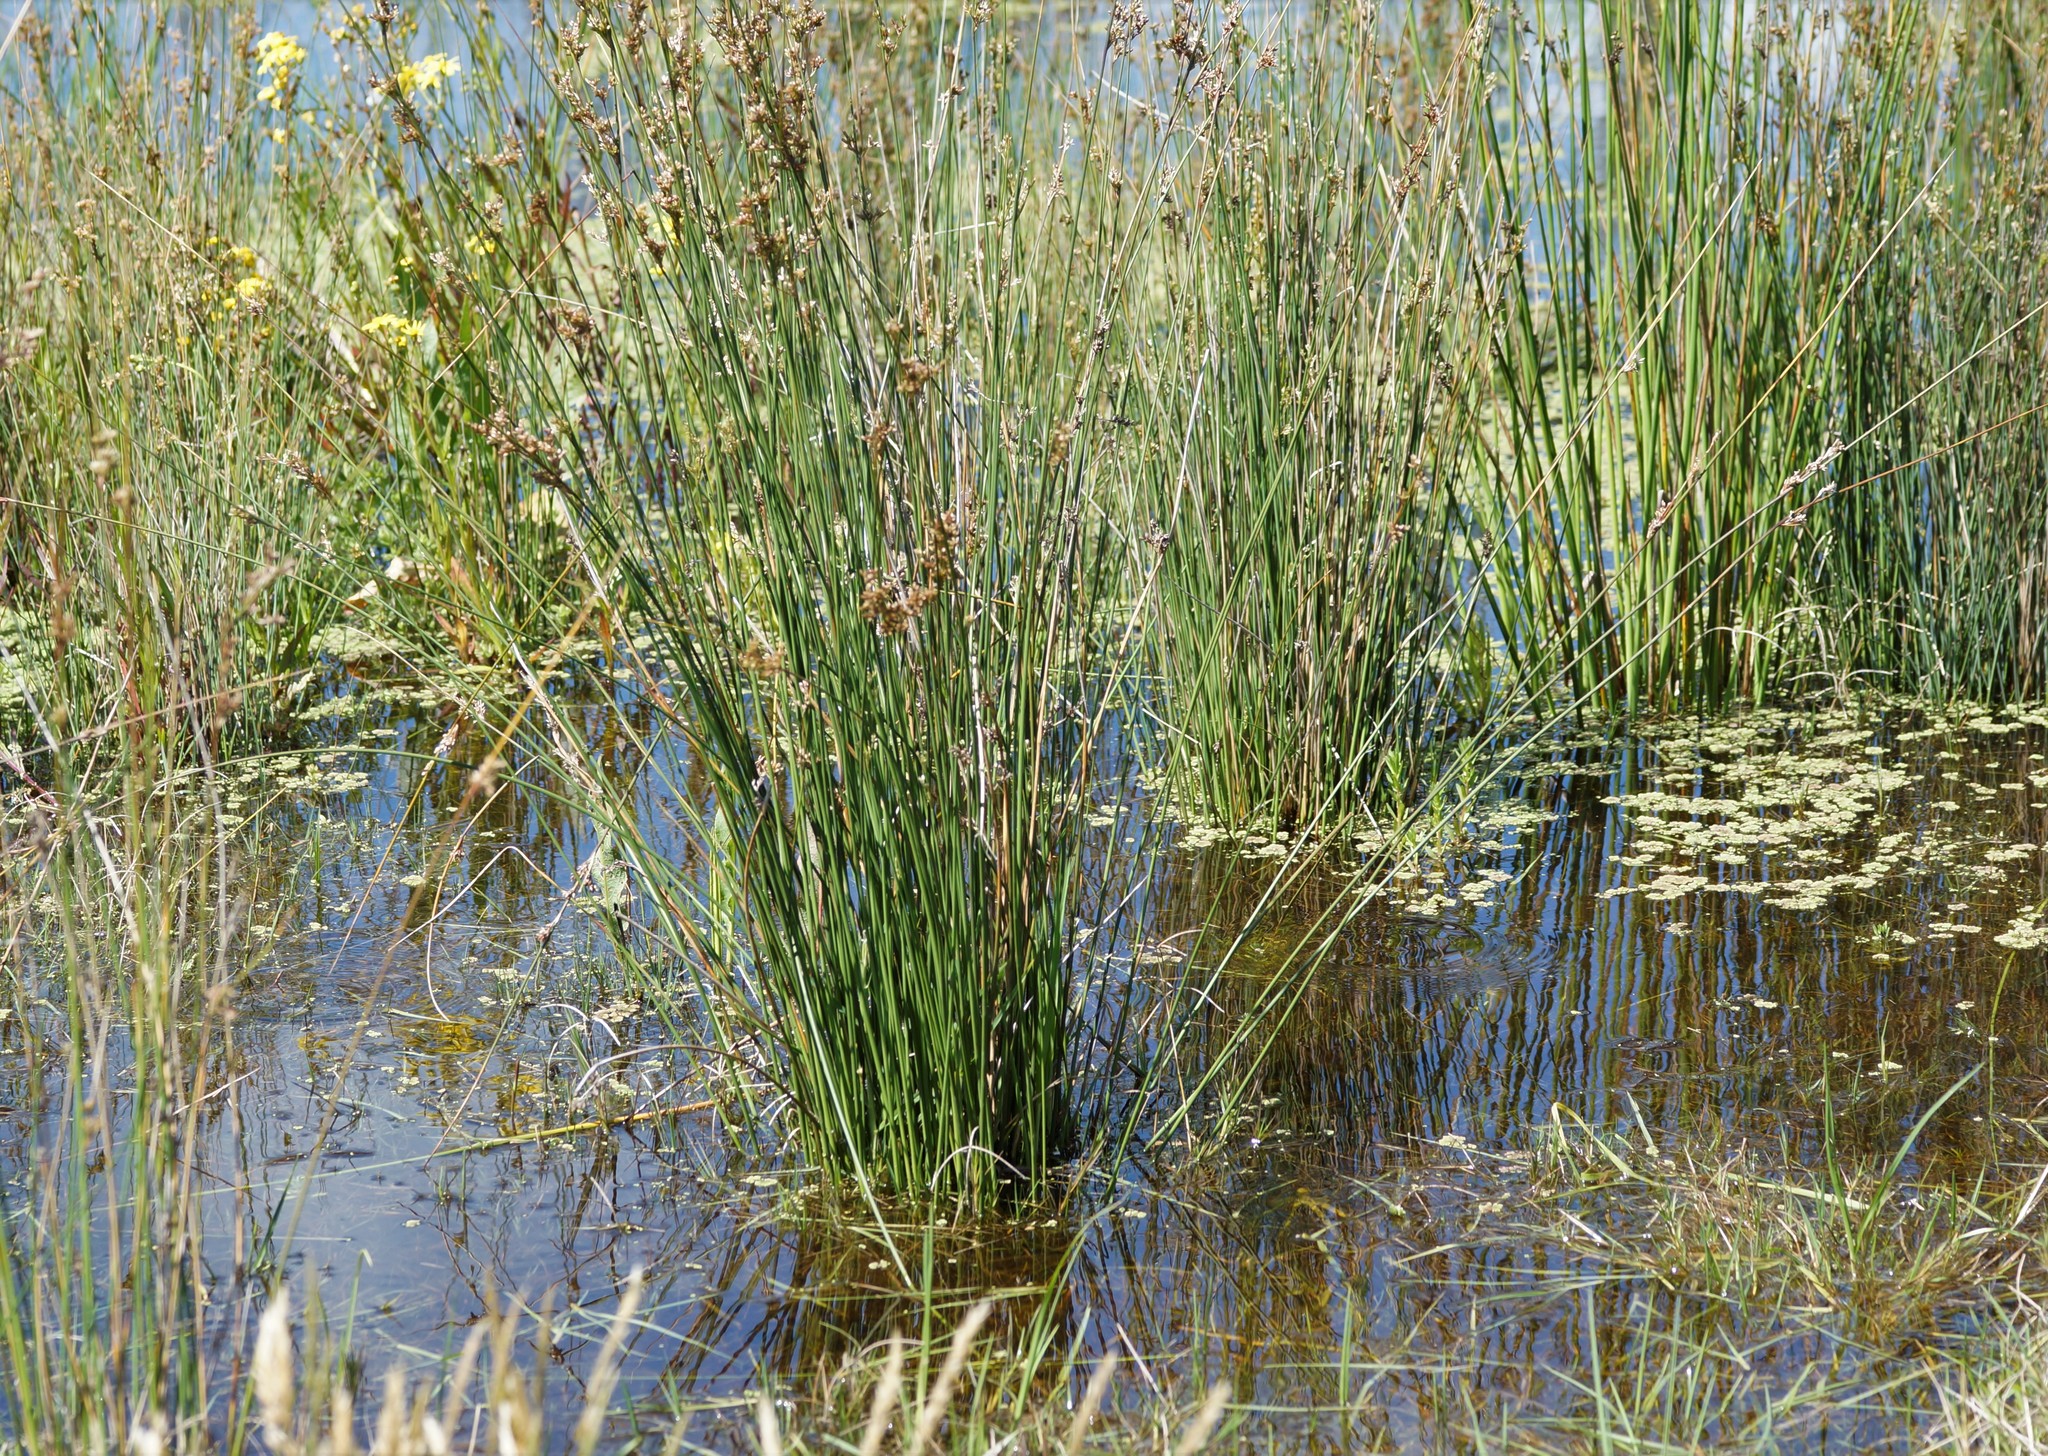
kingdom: Plantae
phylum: Tracheophyta
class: Liliopsida
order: Poales
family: Juncaceae
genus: Juncus
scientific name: Juncus pallidus
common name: Great soft-rush
